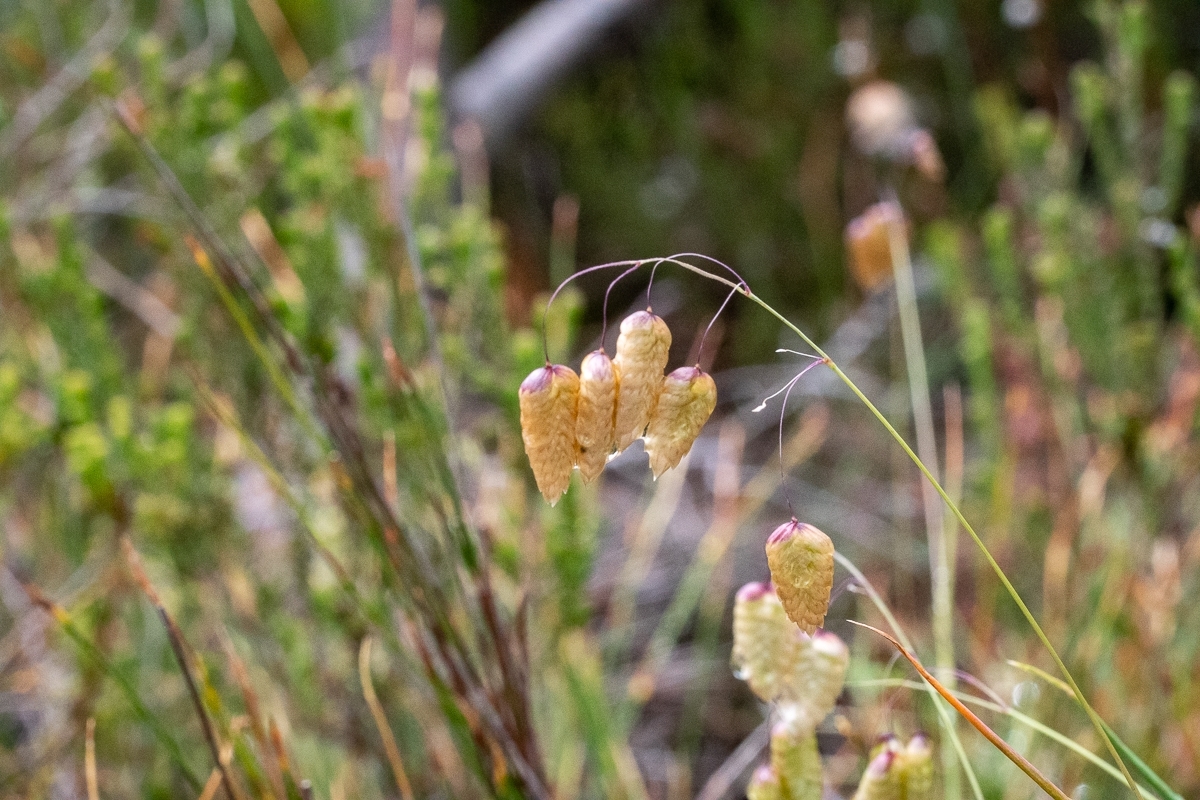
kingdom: Plantae
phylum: Tracheophyta
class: Liliopsida
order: Poales
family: Poaceae
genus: Briza
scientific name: Briza maxima
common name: Big quakinggrass
